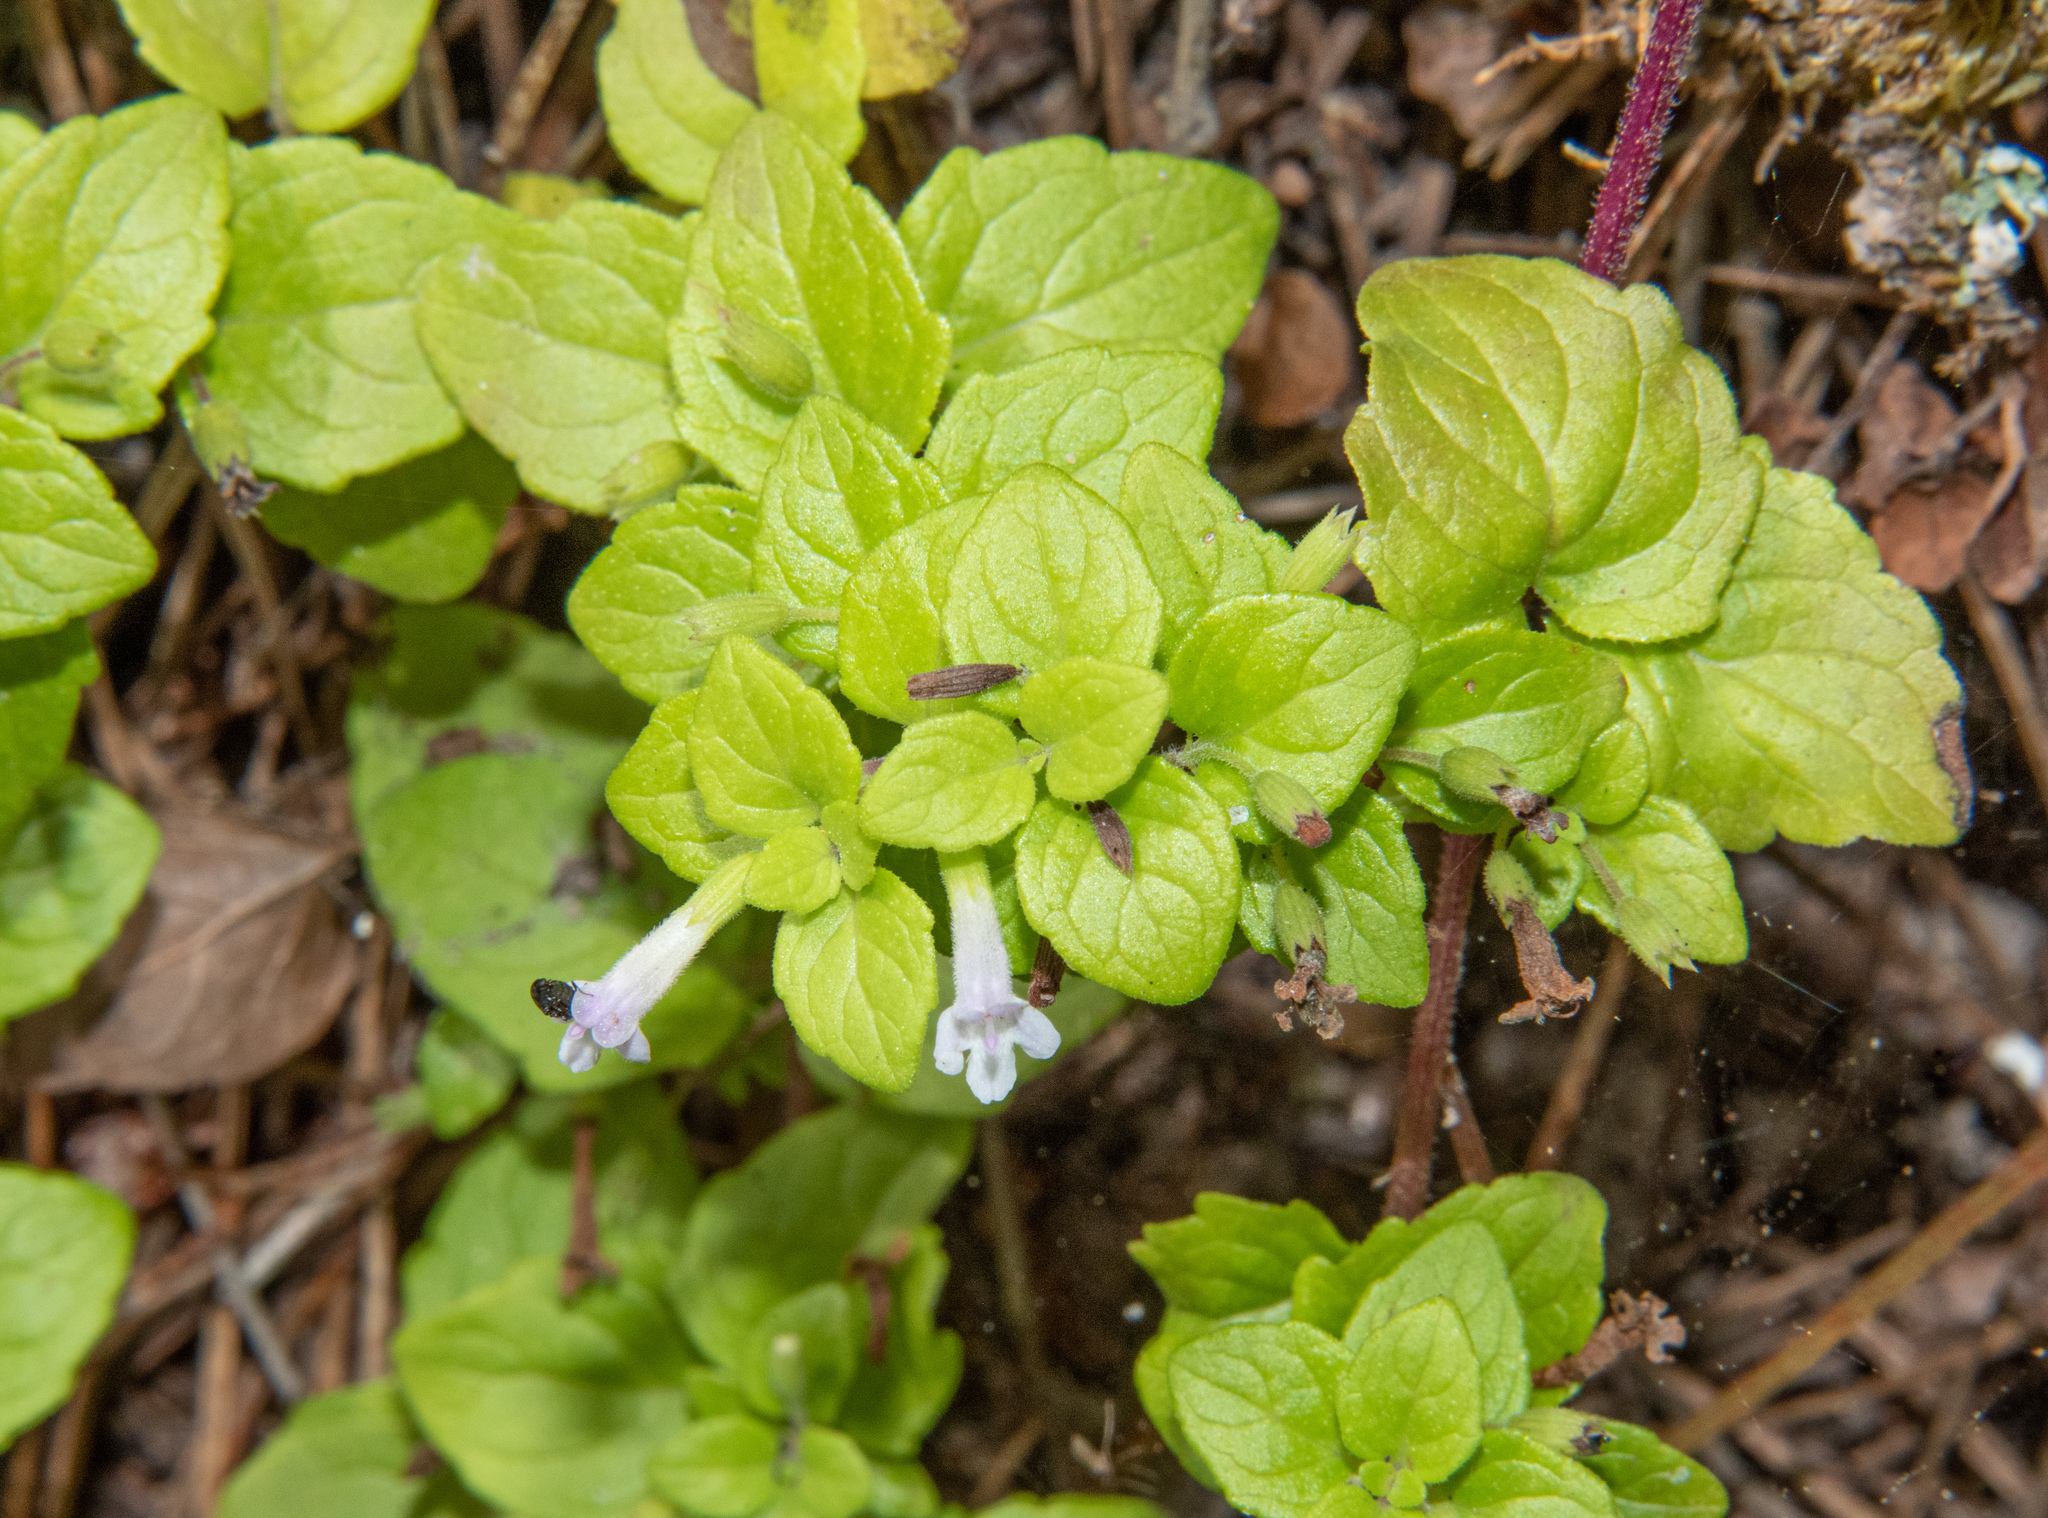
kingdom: Plantae
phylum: Tracheophyta
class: Magnoliopsida
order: Lamiales
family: Lamiaceae
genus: Micromeria
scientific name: Micromeria douglasii
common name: Yerba buena
